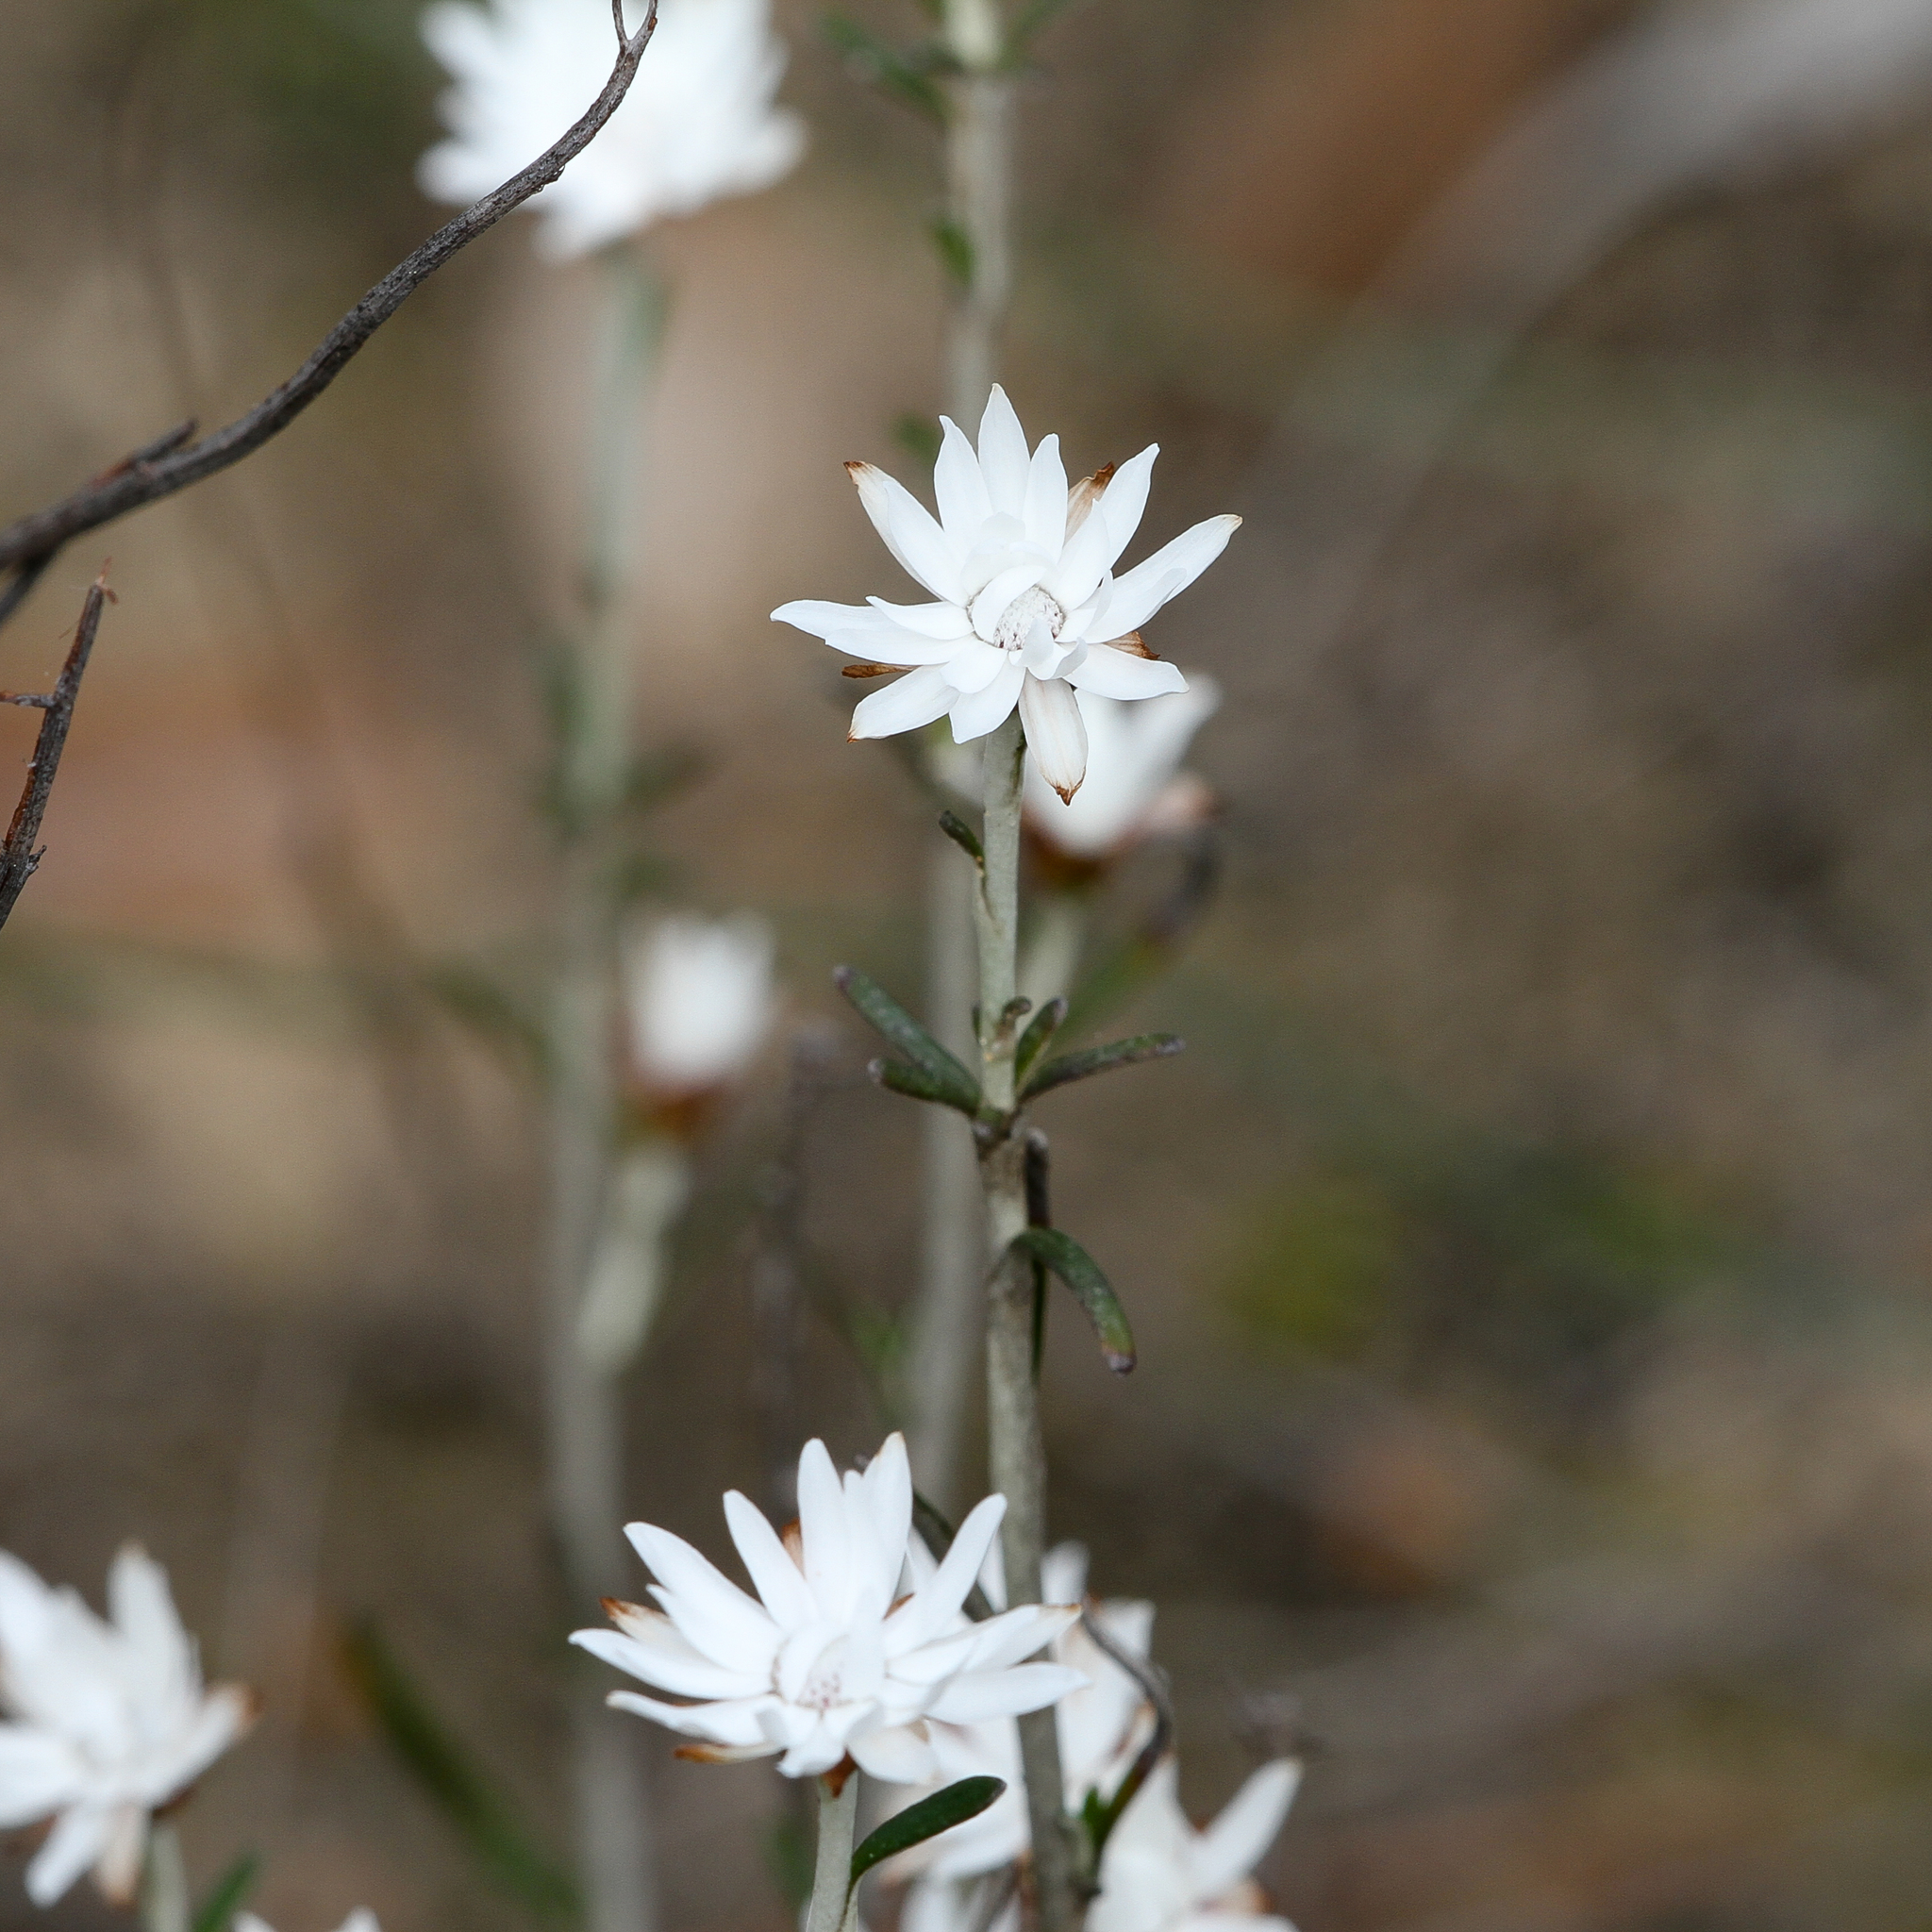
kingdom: Plantae
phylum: Tracheophyta
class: Magnoliopsida
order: Asterales
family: Asteraceae
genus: Argentipallium
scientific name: Argentipallium obtusifolium
